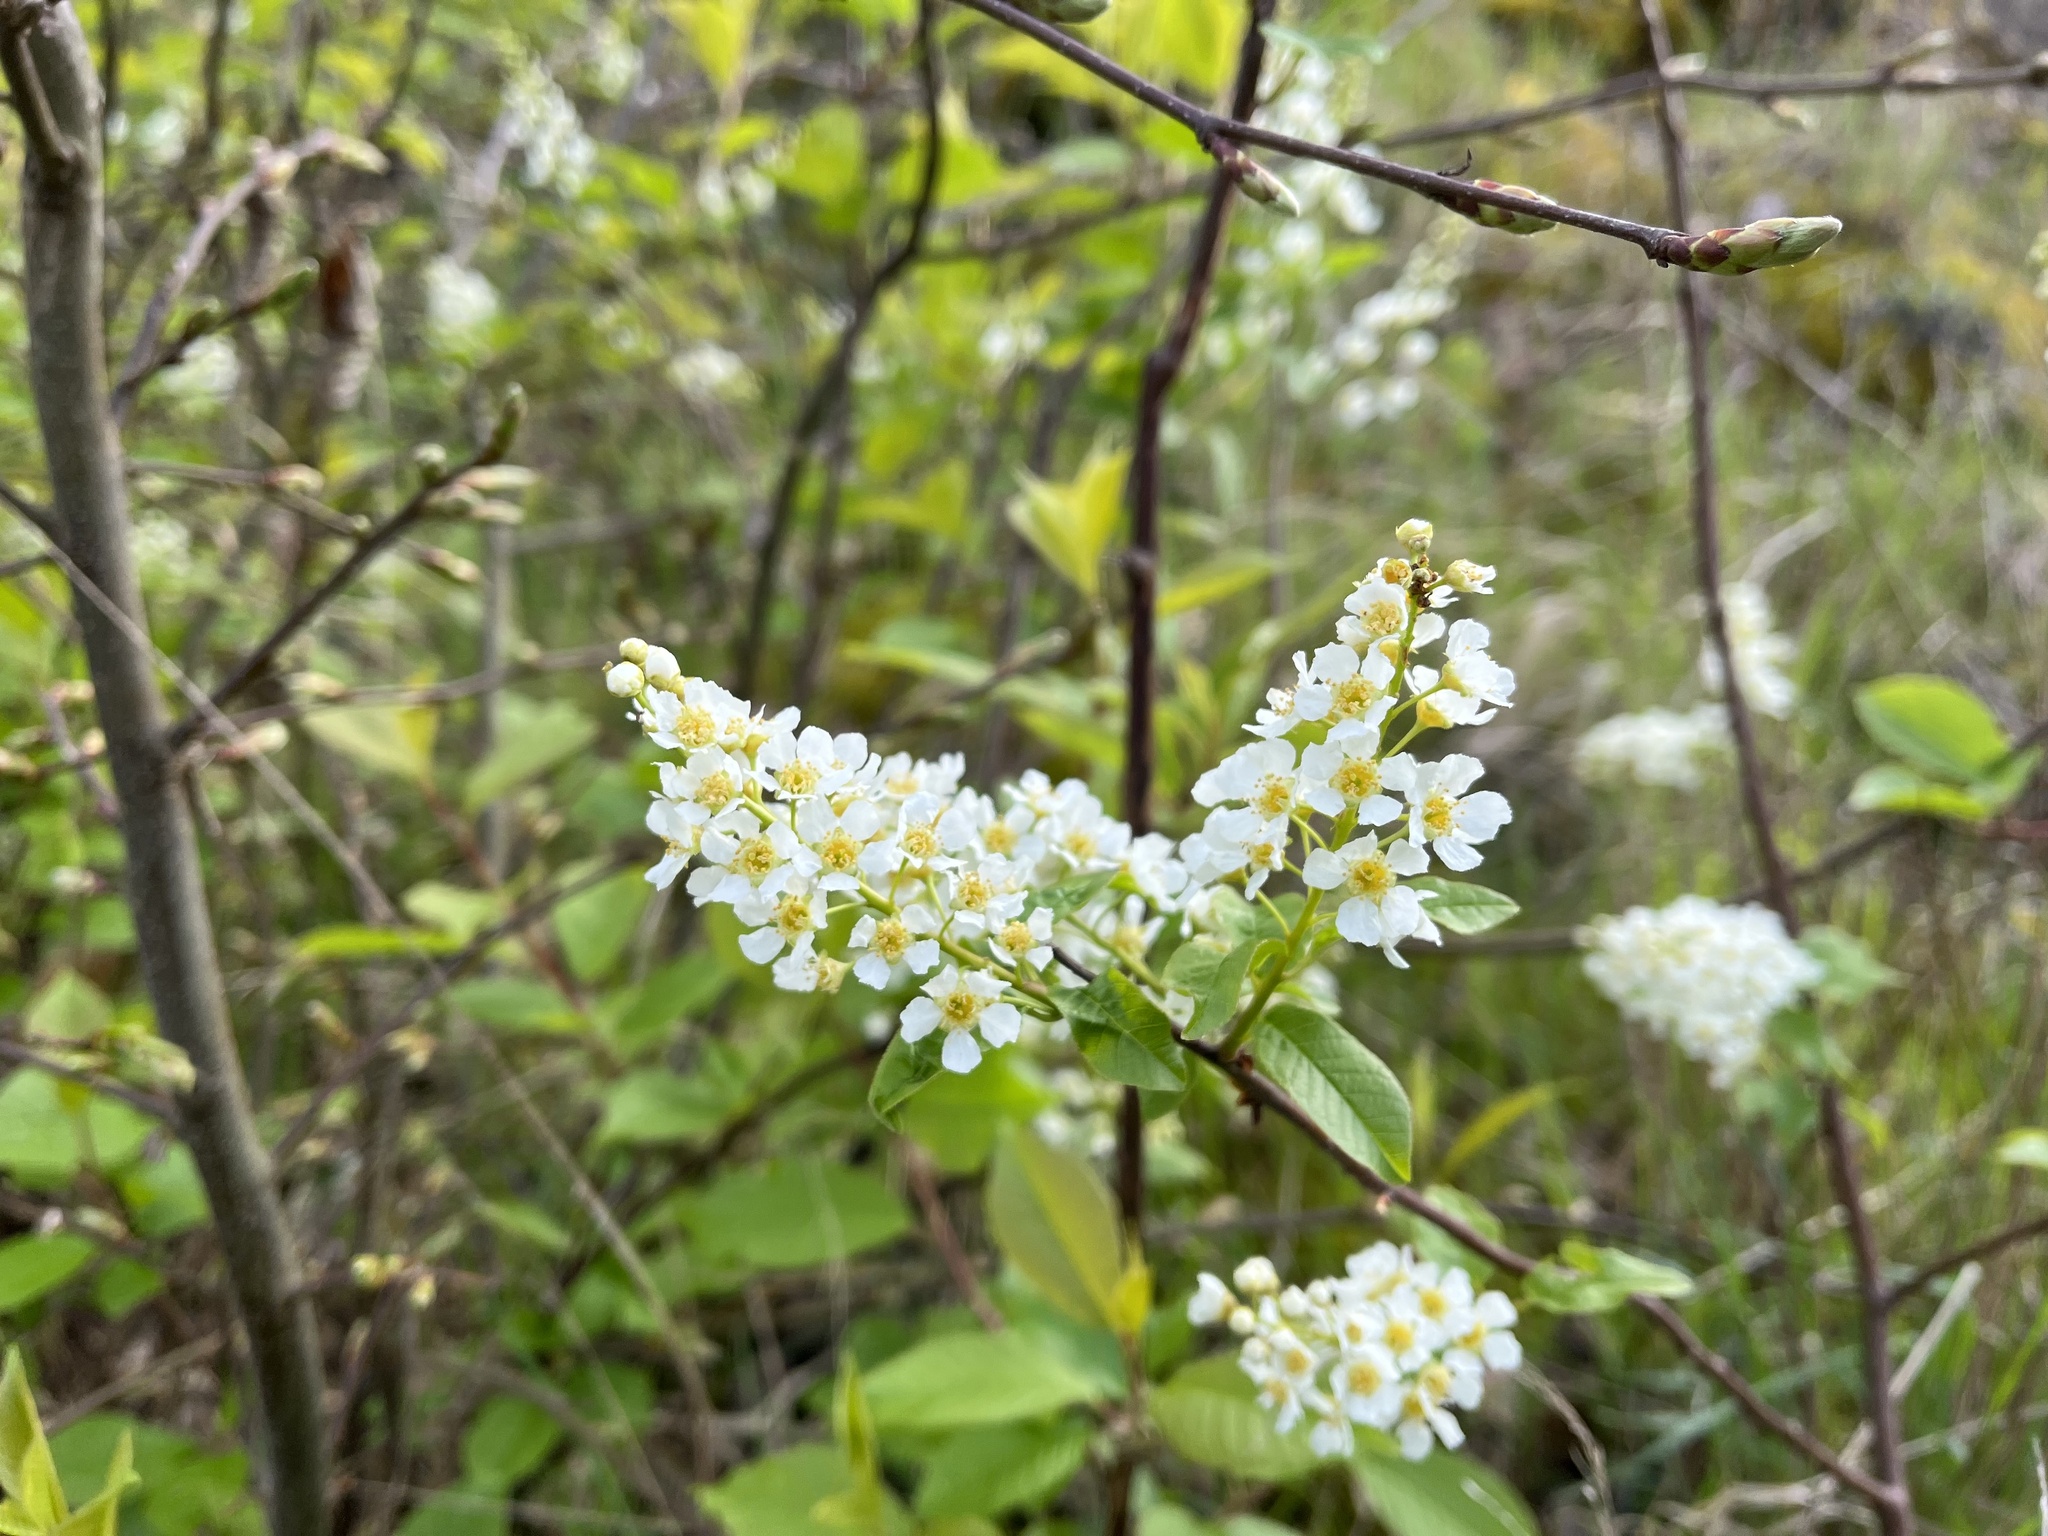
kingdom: Plantae
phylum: Tracheophyta
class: Magnoliopsida
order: Rosales
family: Rosaceae
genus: Prunus
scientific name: Prunus padus
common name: Bird cherry
